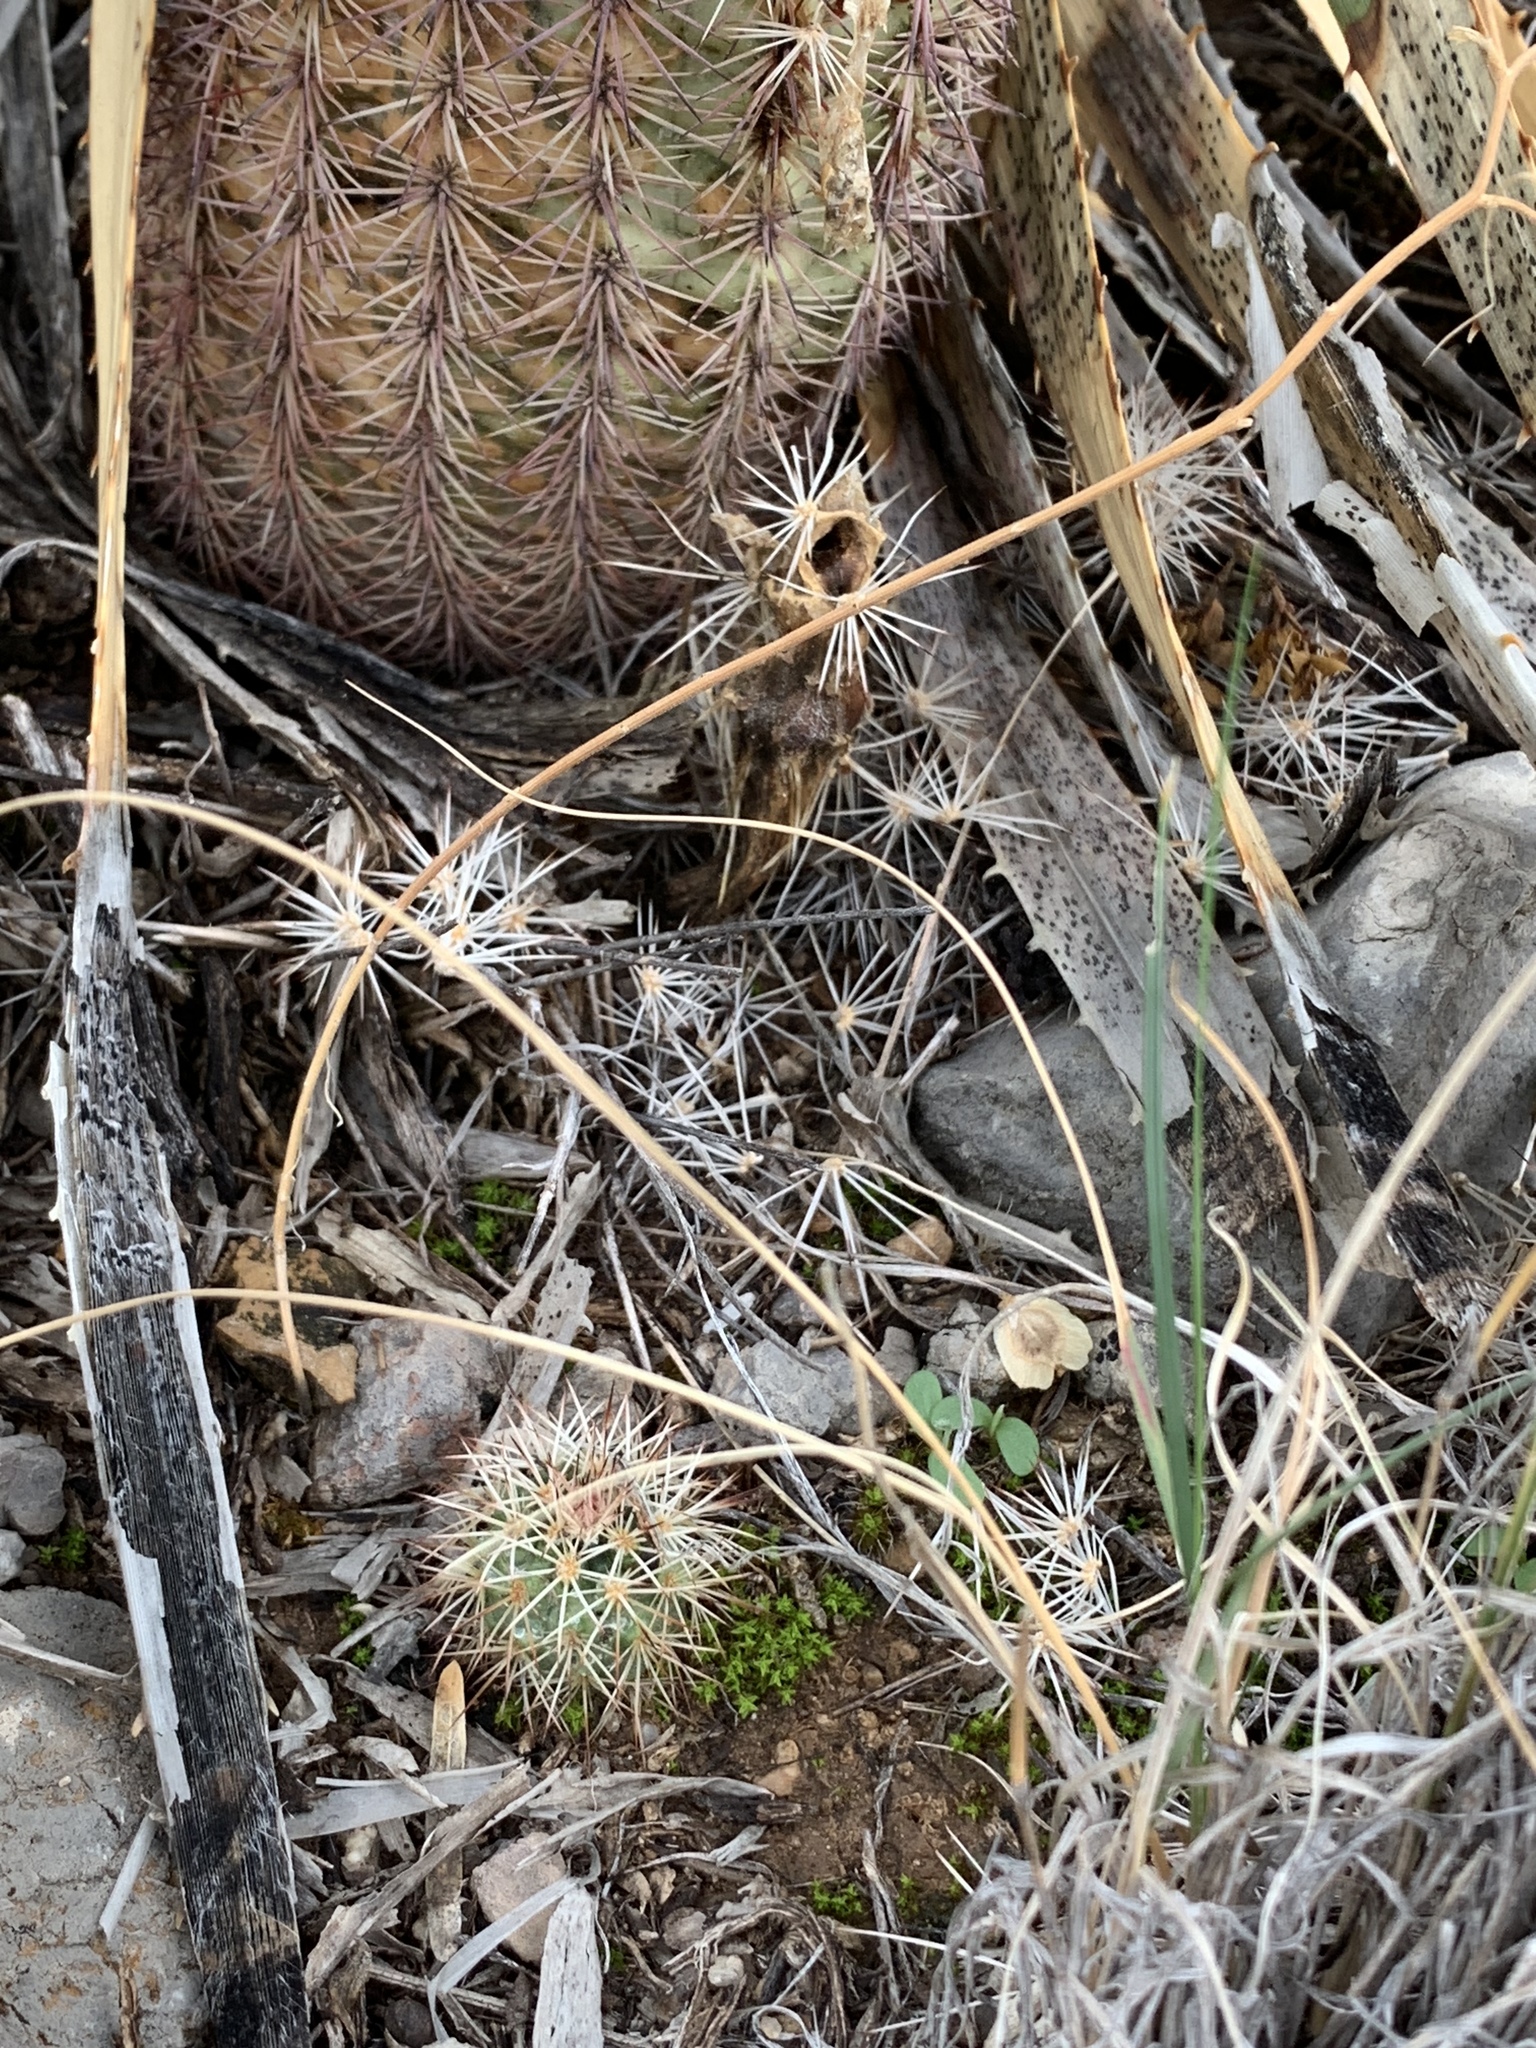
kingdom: Plantae
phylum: Tracheophyta
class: Magnoliopsida
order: Caryophyllales
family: Cactaceae
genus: Echinocereus
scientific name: Echinocereus dasyacanthus
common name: Spiny hedgehog cactus
